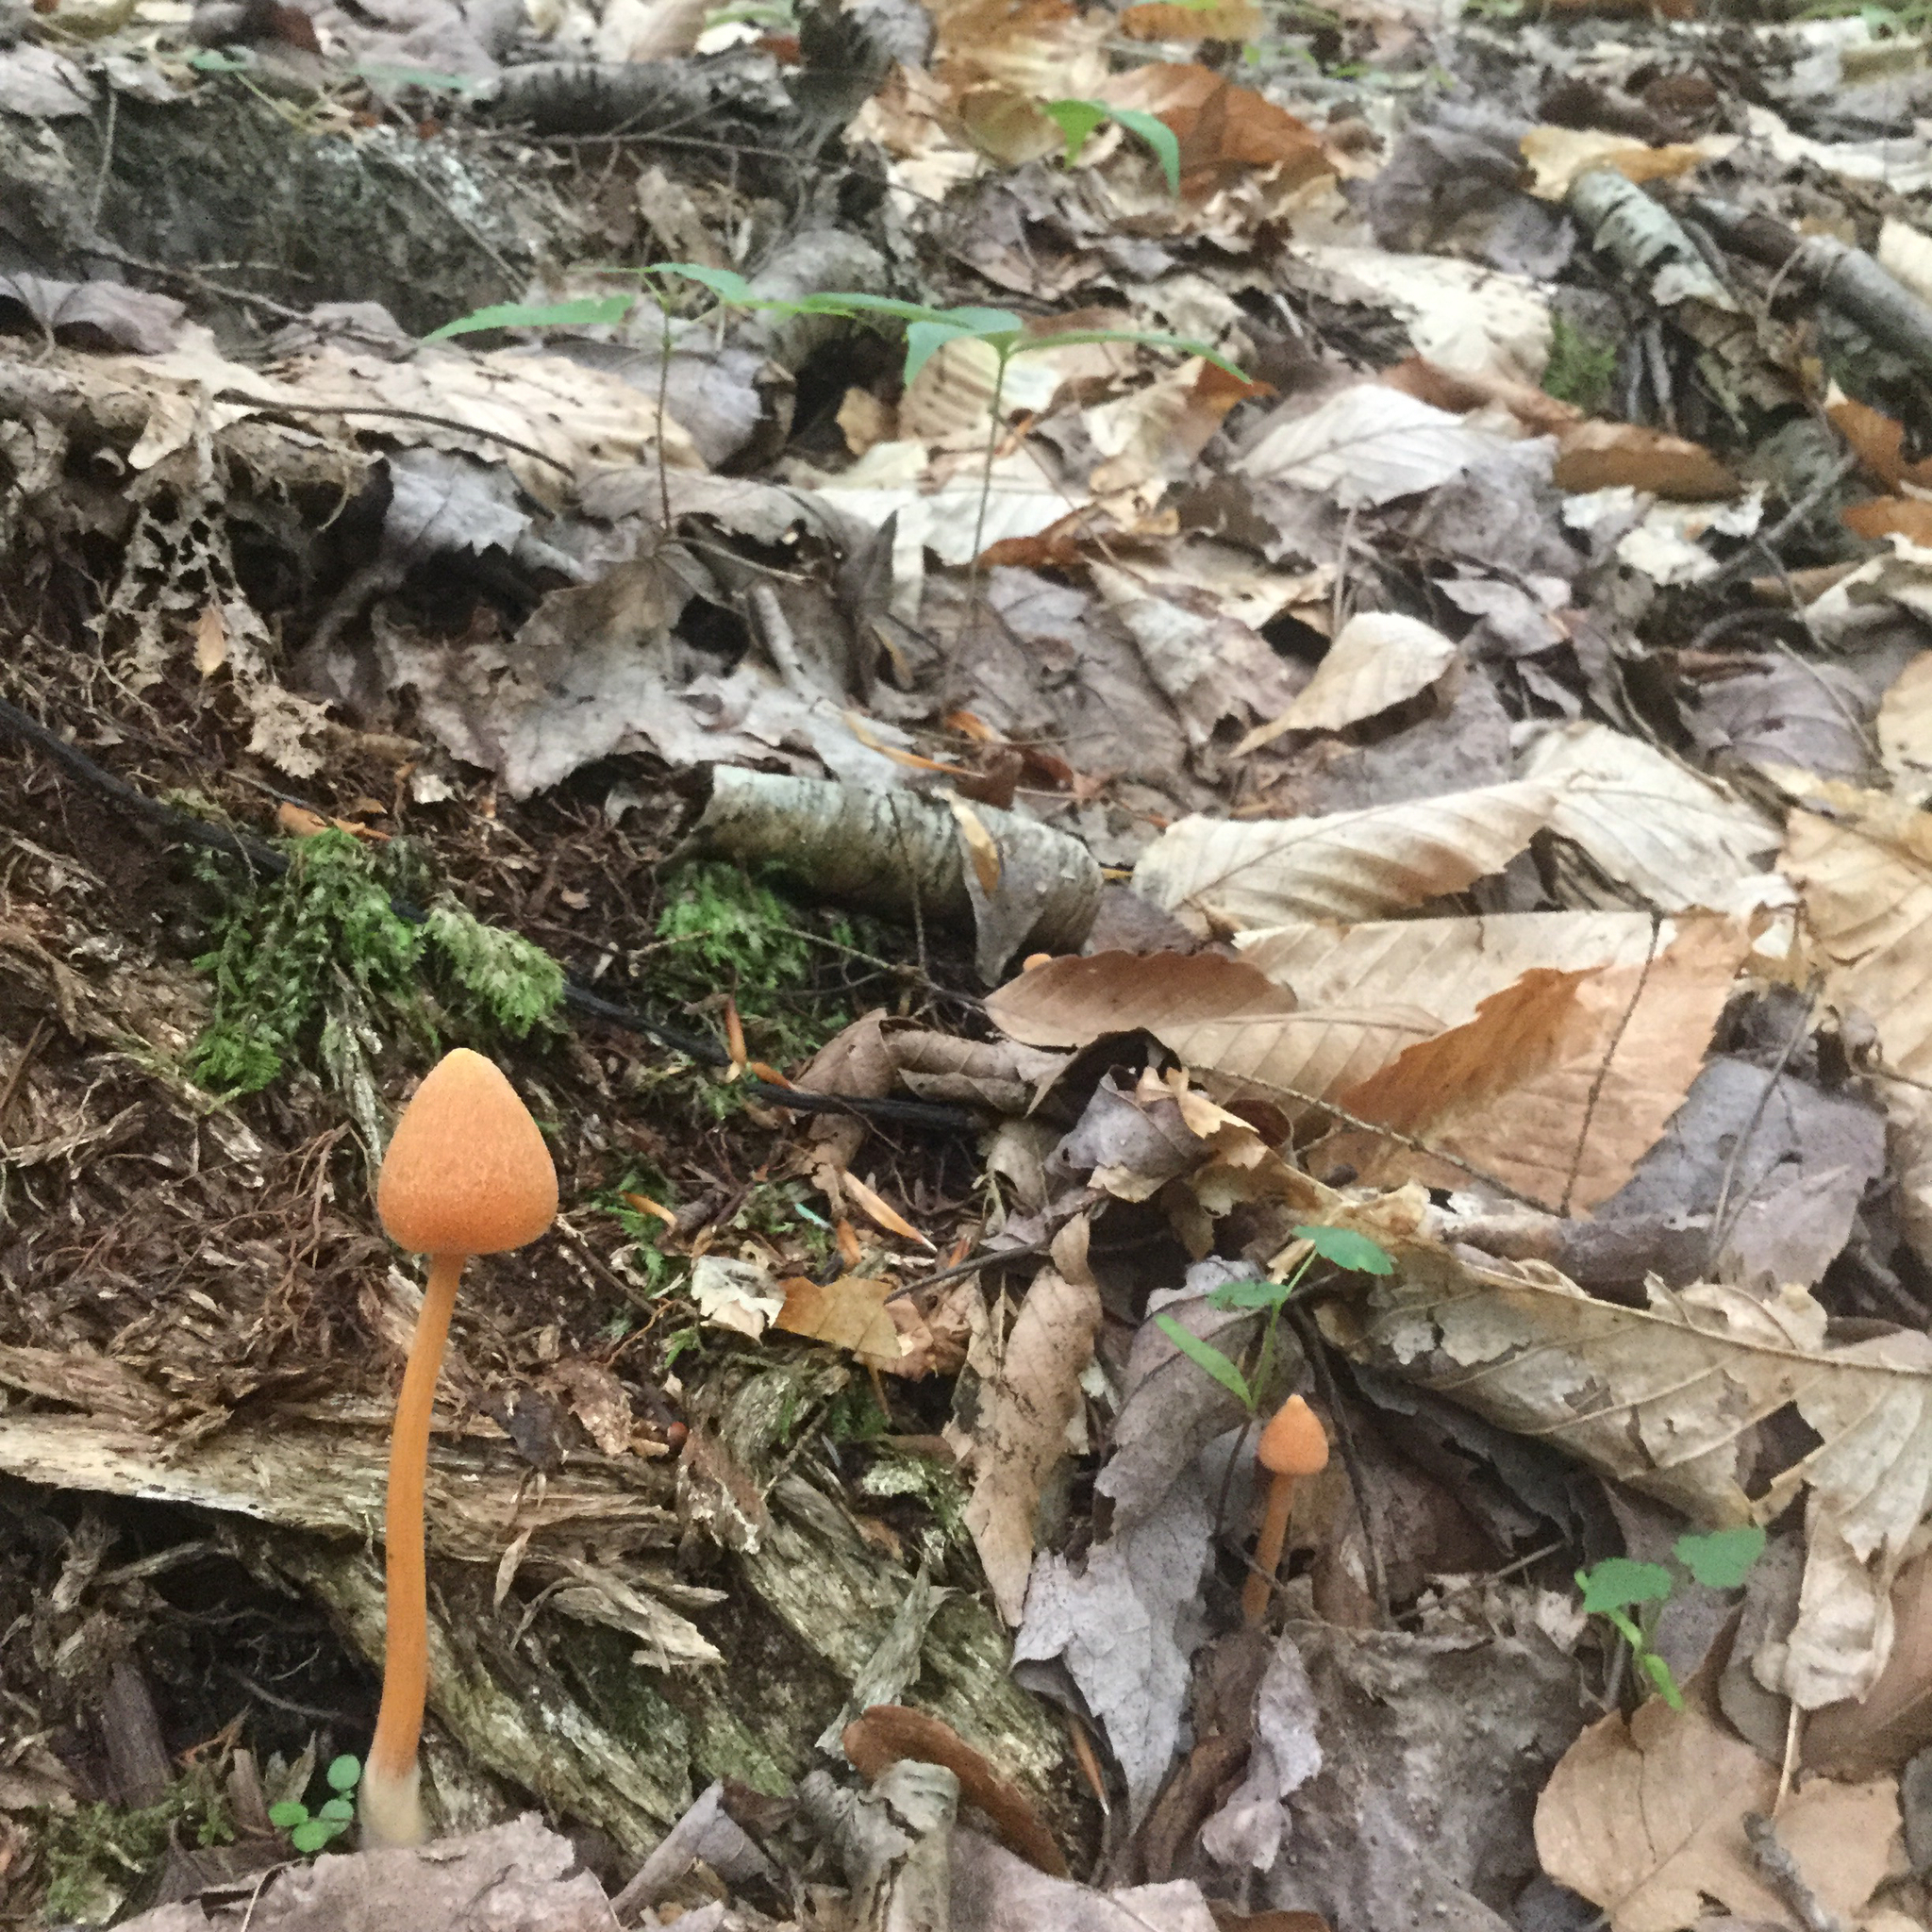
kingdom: Fungi
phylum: Basidiomycota
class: Agaricomycetes
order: Agaricales
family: Entolomataceae
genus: Entoloma
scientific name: Entoloma quadratum
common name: Salmon pinkgill
